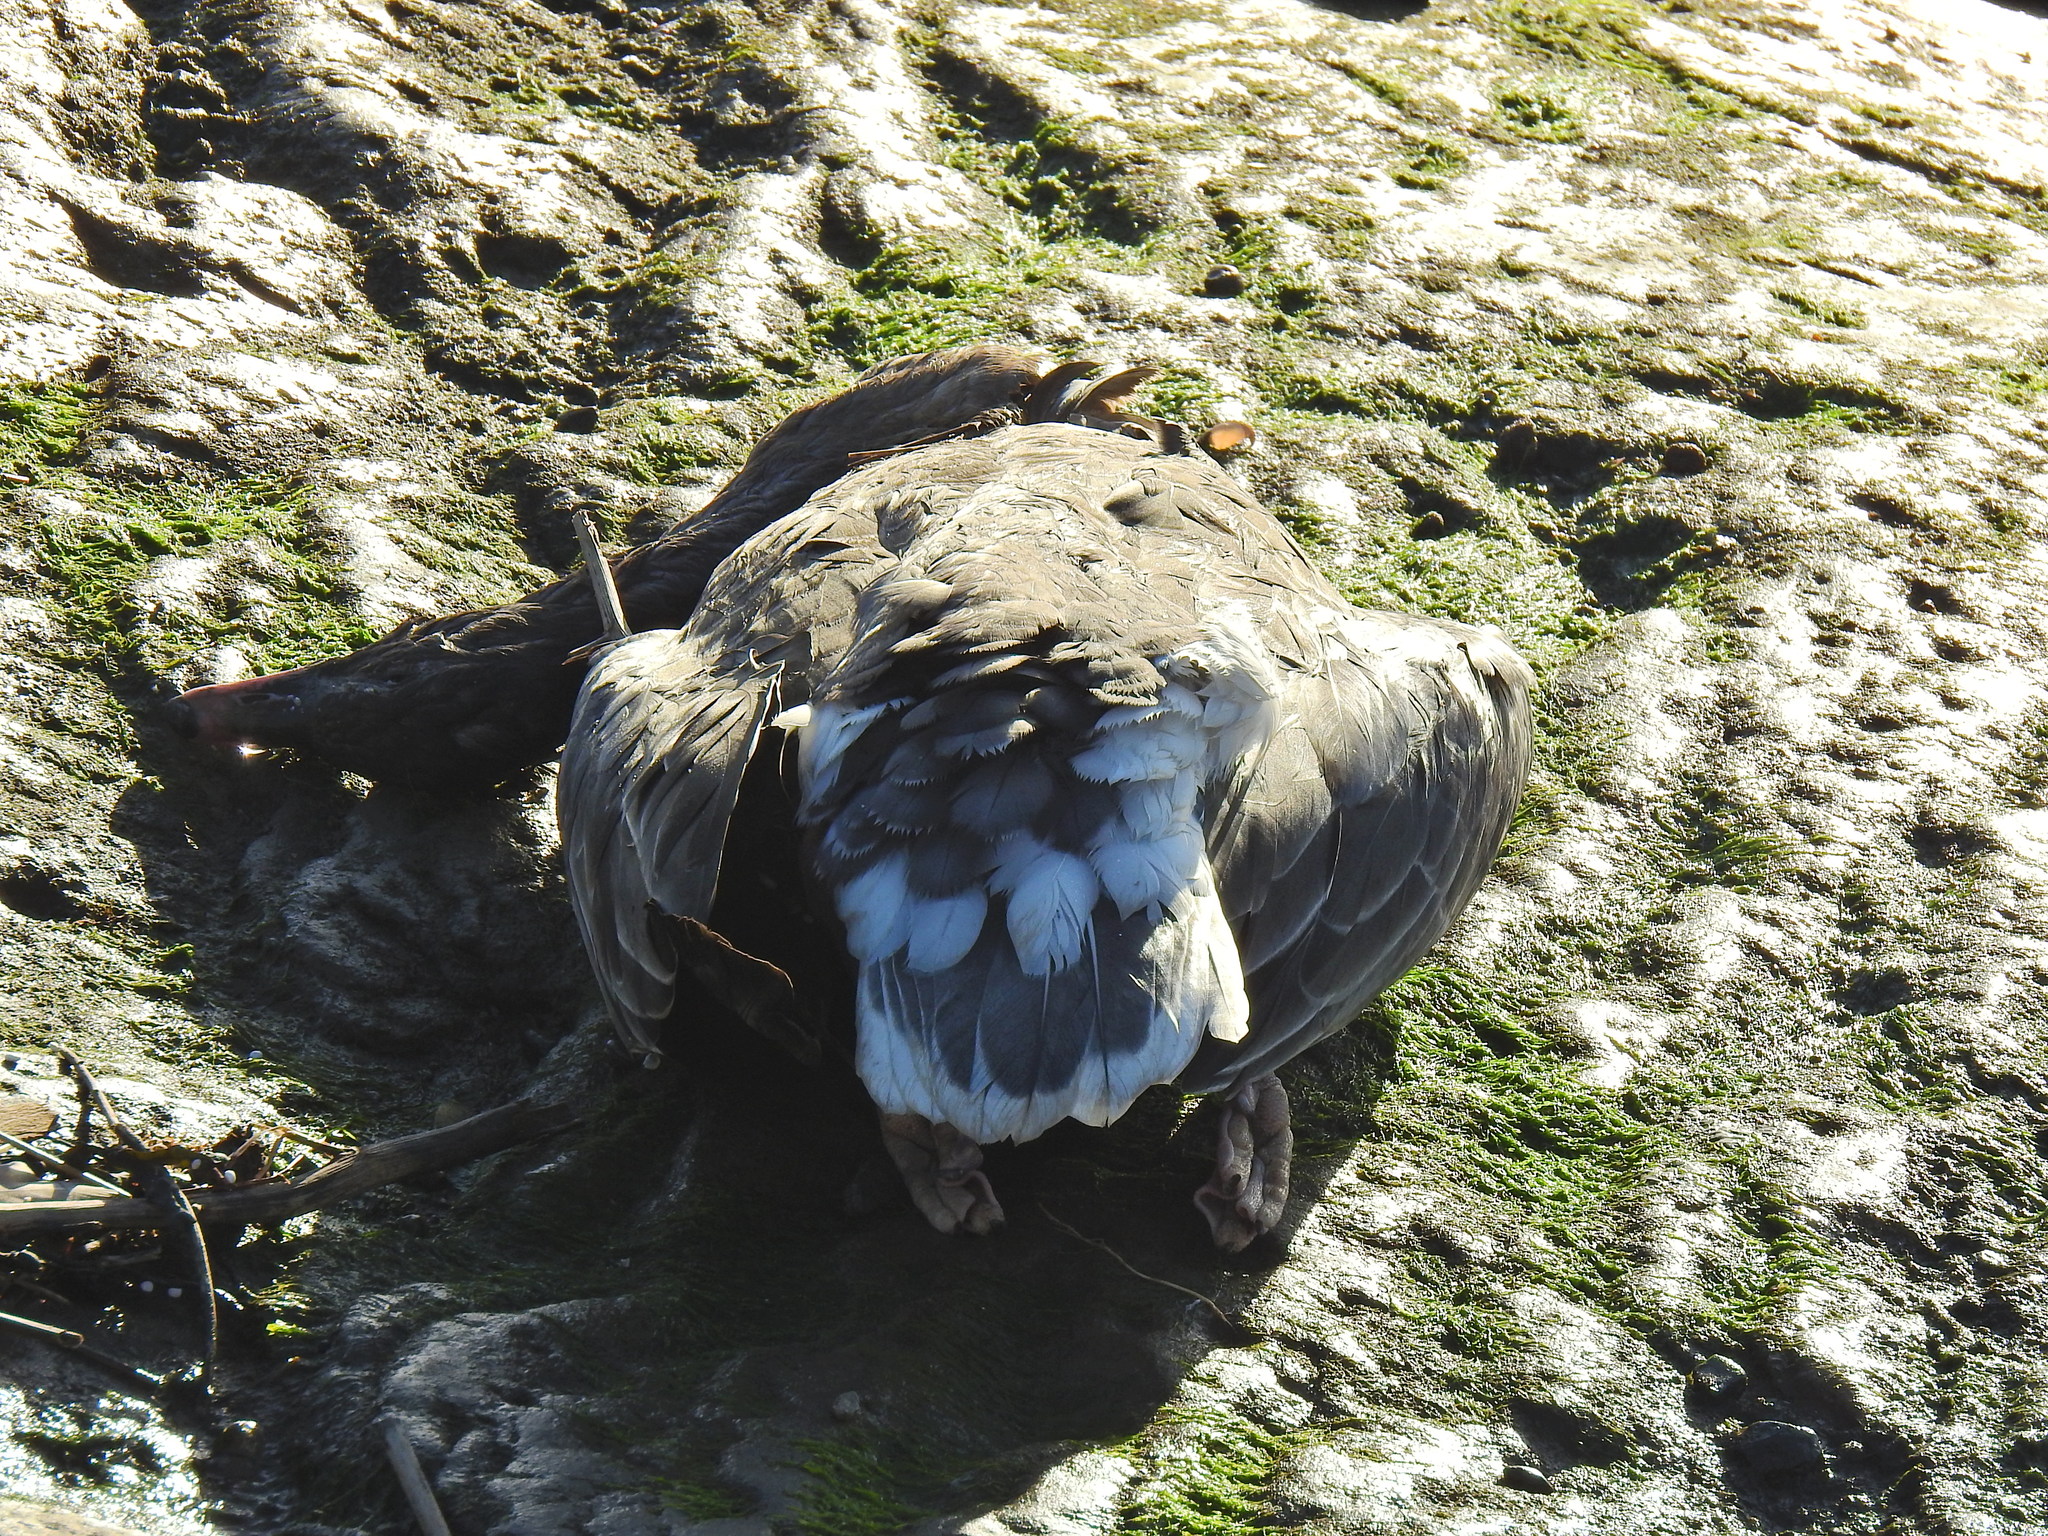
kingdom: Animalia
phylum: Chordata
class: Aves
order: Anseriformes
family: Anatidae
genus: Anser
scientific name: Anser brachyrhynchus
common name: Pink-footed goose
